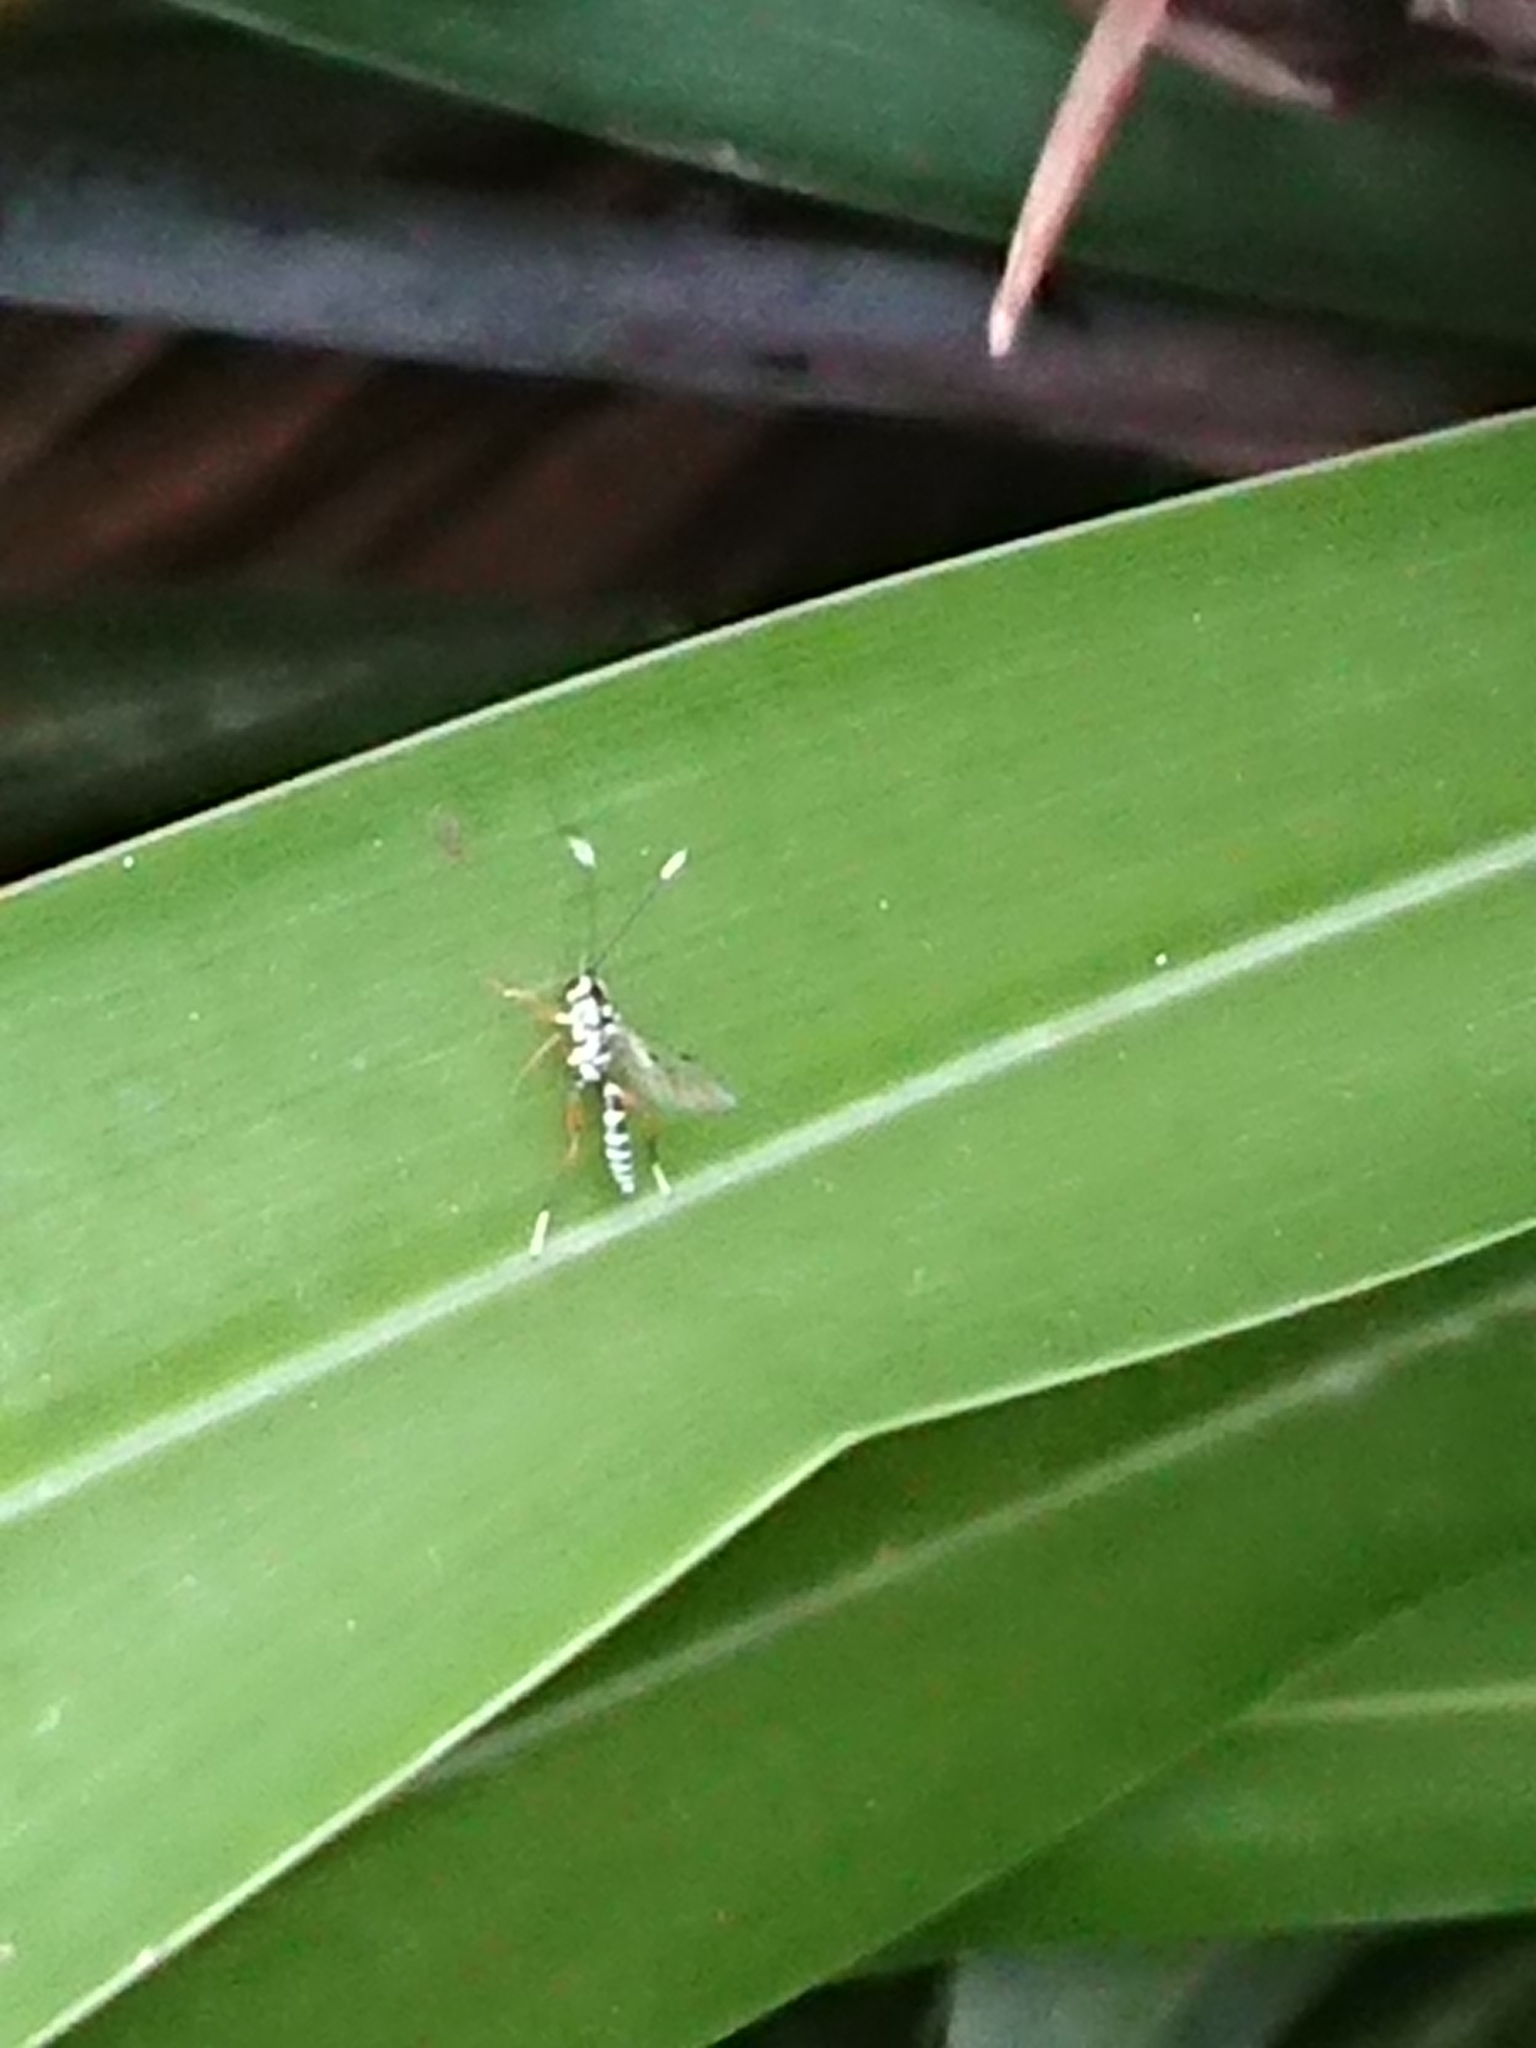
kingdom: Animalia
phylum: Arthropoda
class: Insecta
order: Hymenoptera
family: Ichneumonidae
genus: Glabridorsum
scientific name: Glabridorsum stokesii
